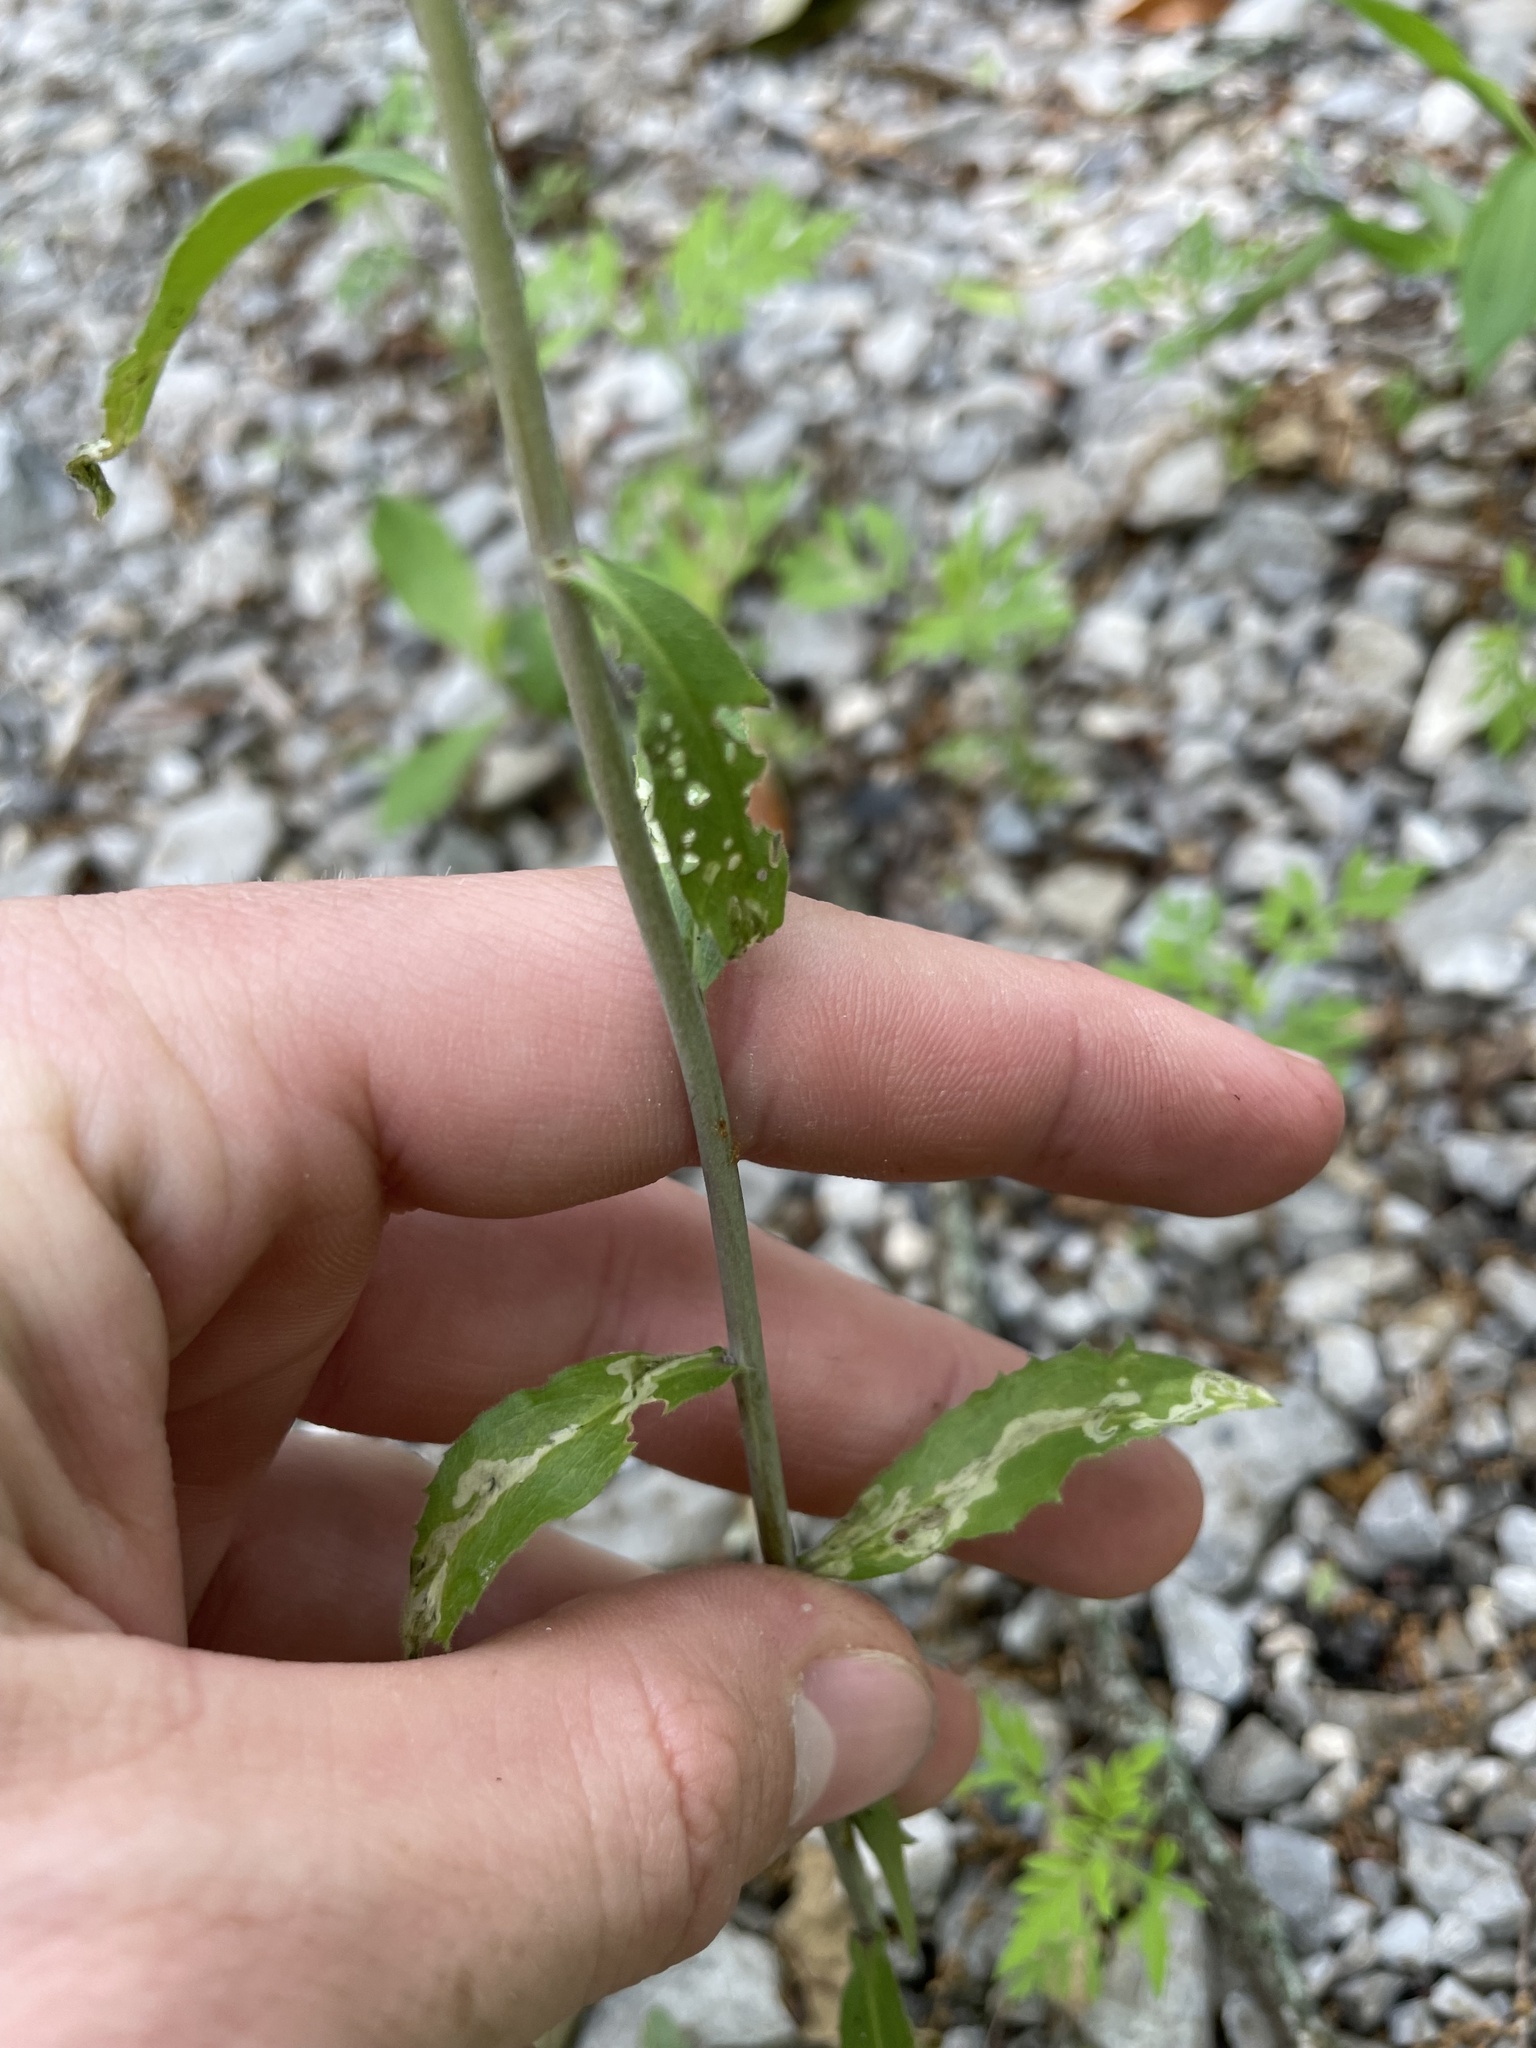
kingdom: Plantae
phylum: Tracheophyta
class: Magnoliopsida
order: Brassicales
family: Brassicaceae
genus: Borodinia
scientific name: Borodinia canadensis
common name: Sicklepod
